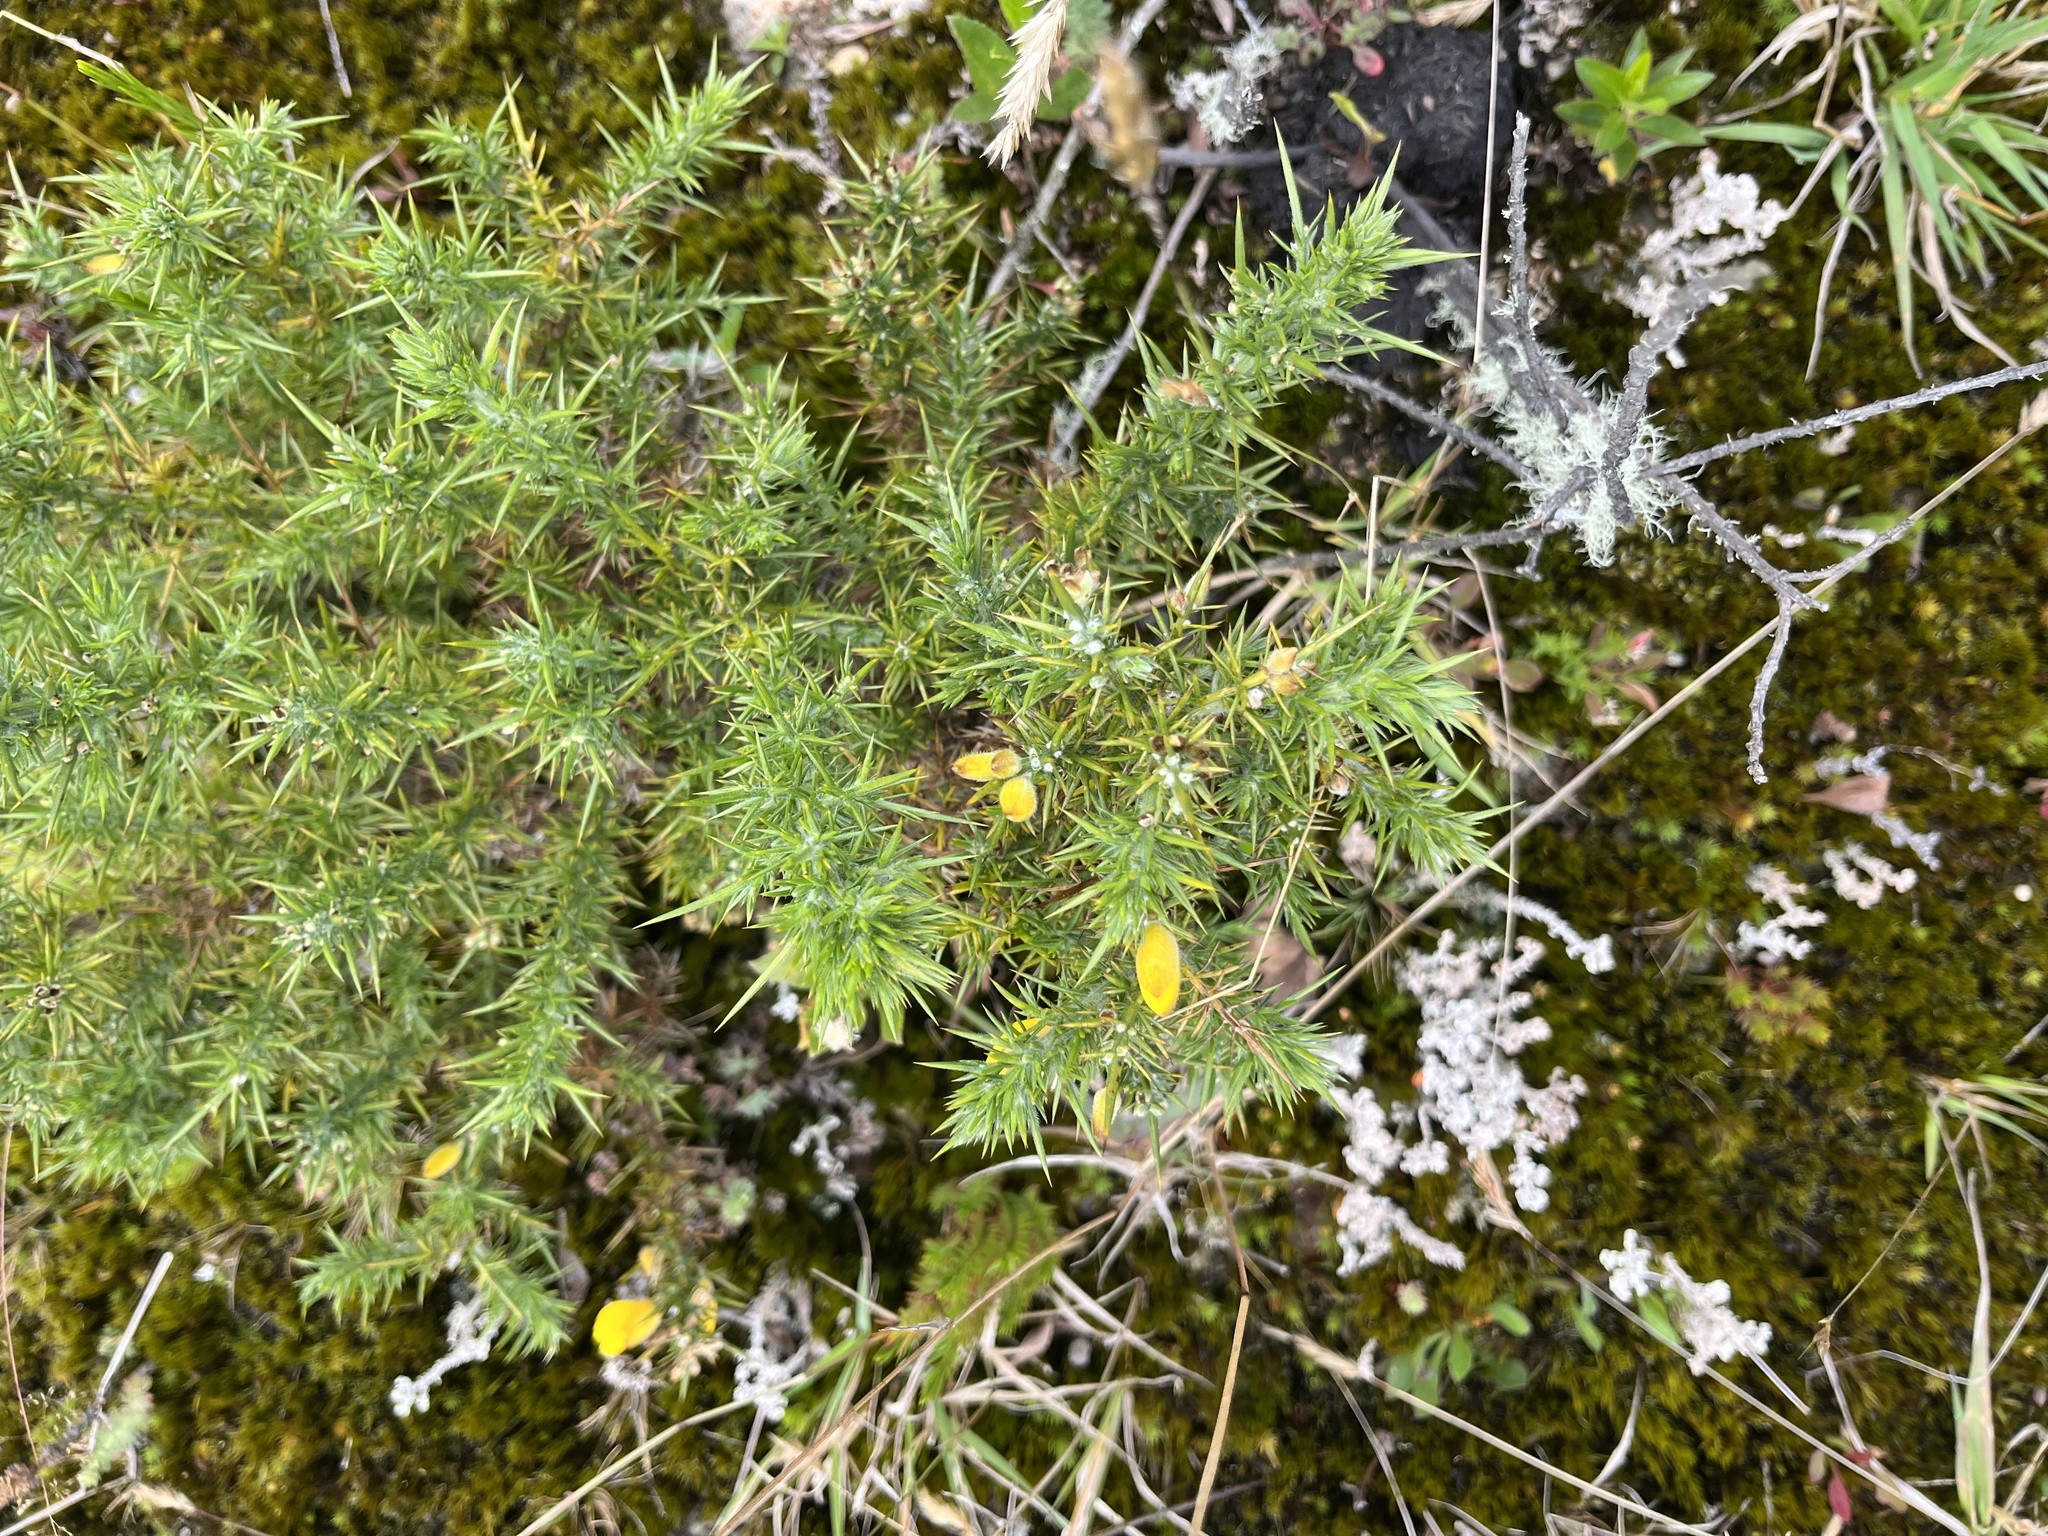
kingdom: Plantae
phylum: Tracheophyta
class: Magnoliopsida
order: Fabales
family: Fabaceae
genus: Ulex
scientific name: Ulex europaeus
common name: Common gorse
